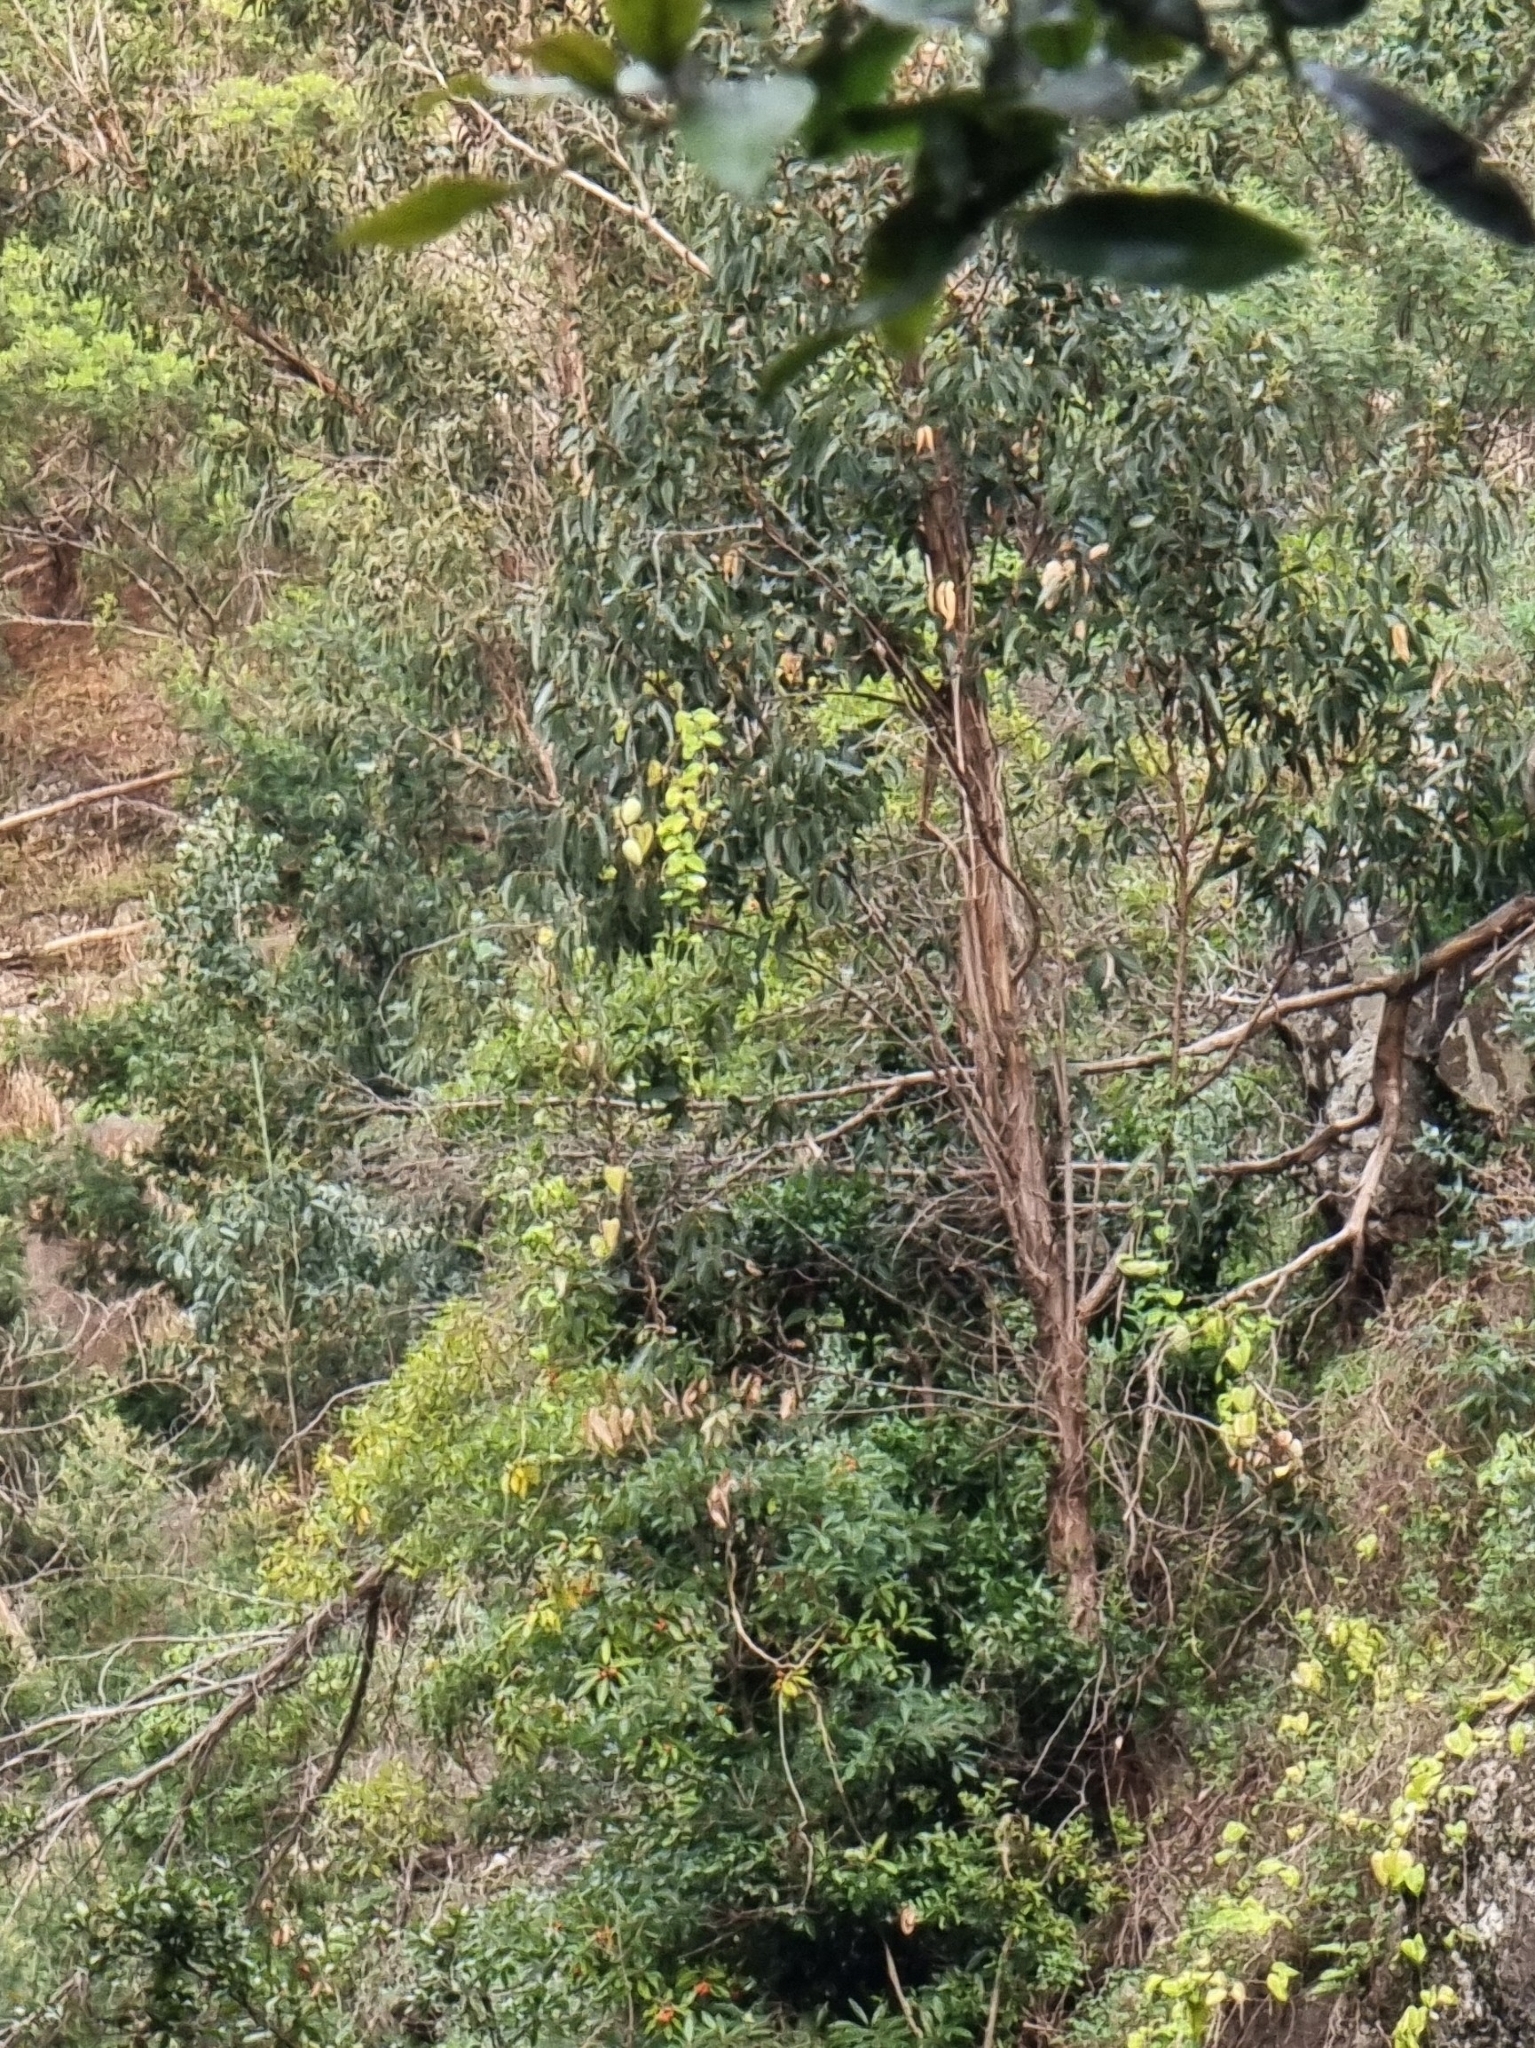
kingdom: Plantae
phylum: Tracheophyta
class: Magnoliopsida
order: Myrtales
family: Myrtaceae
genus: Eucalyptus
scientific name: Eucalyptus globulus
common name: Southern blue-gum
